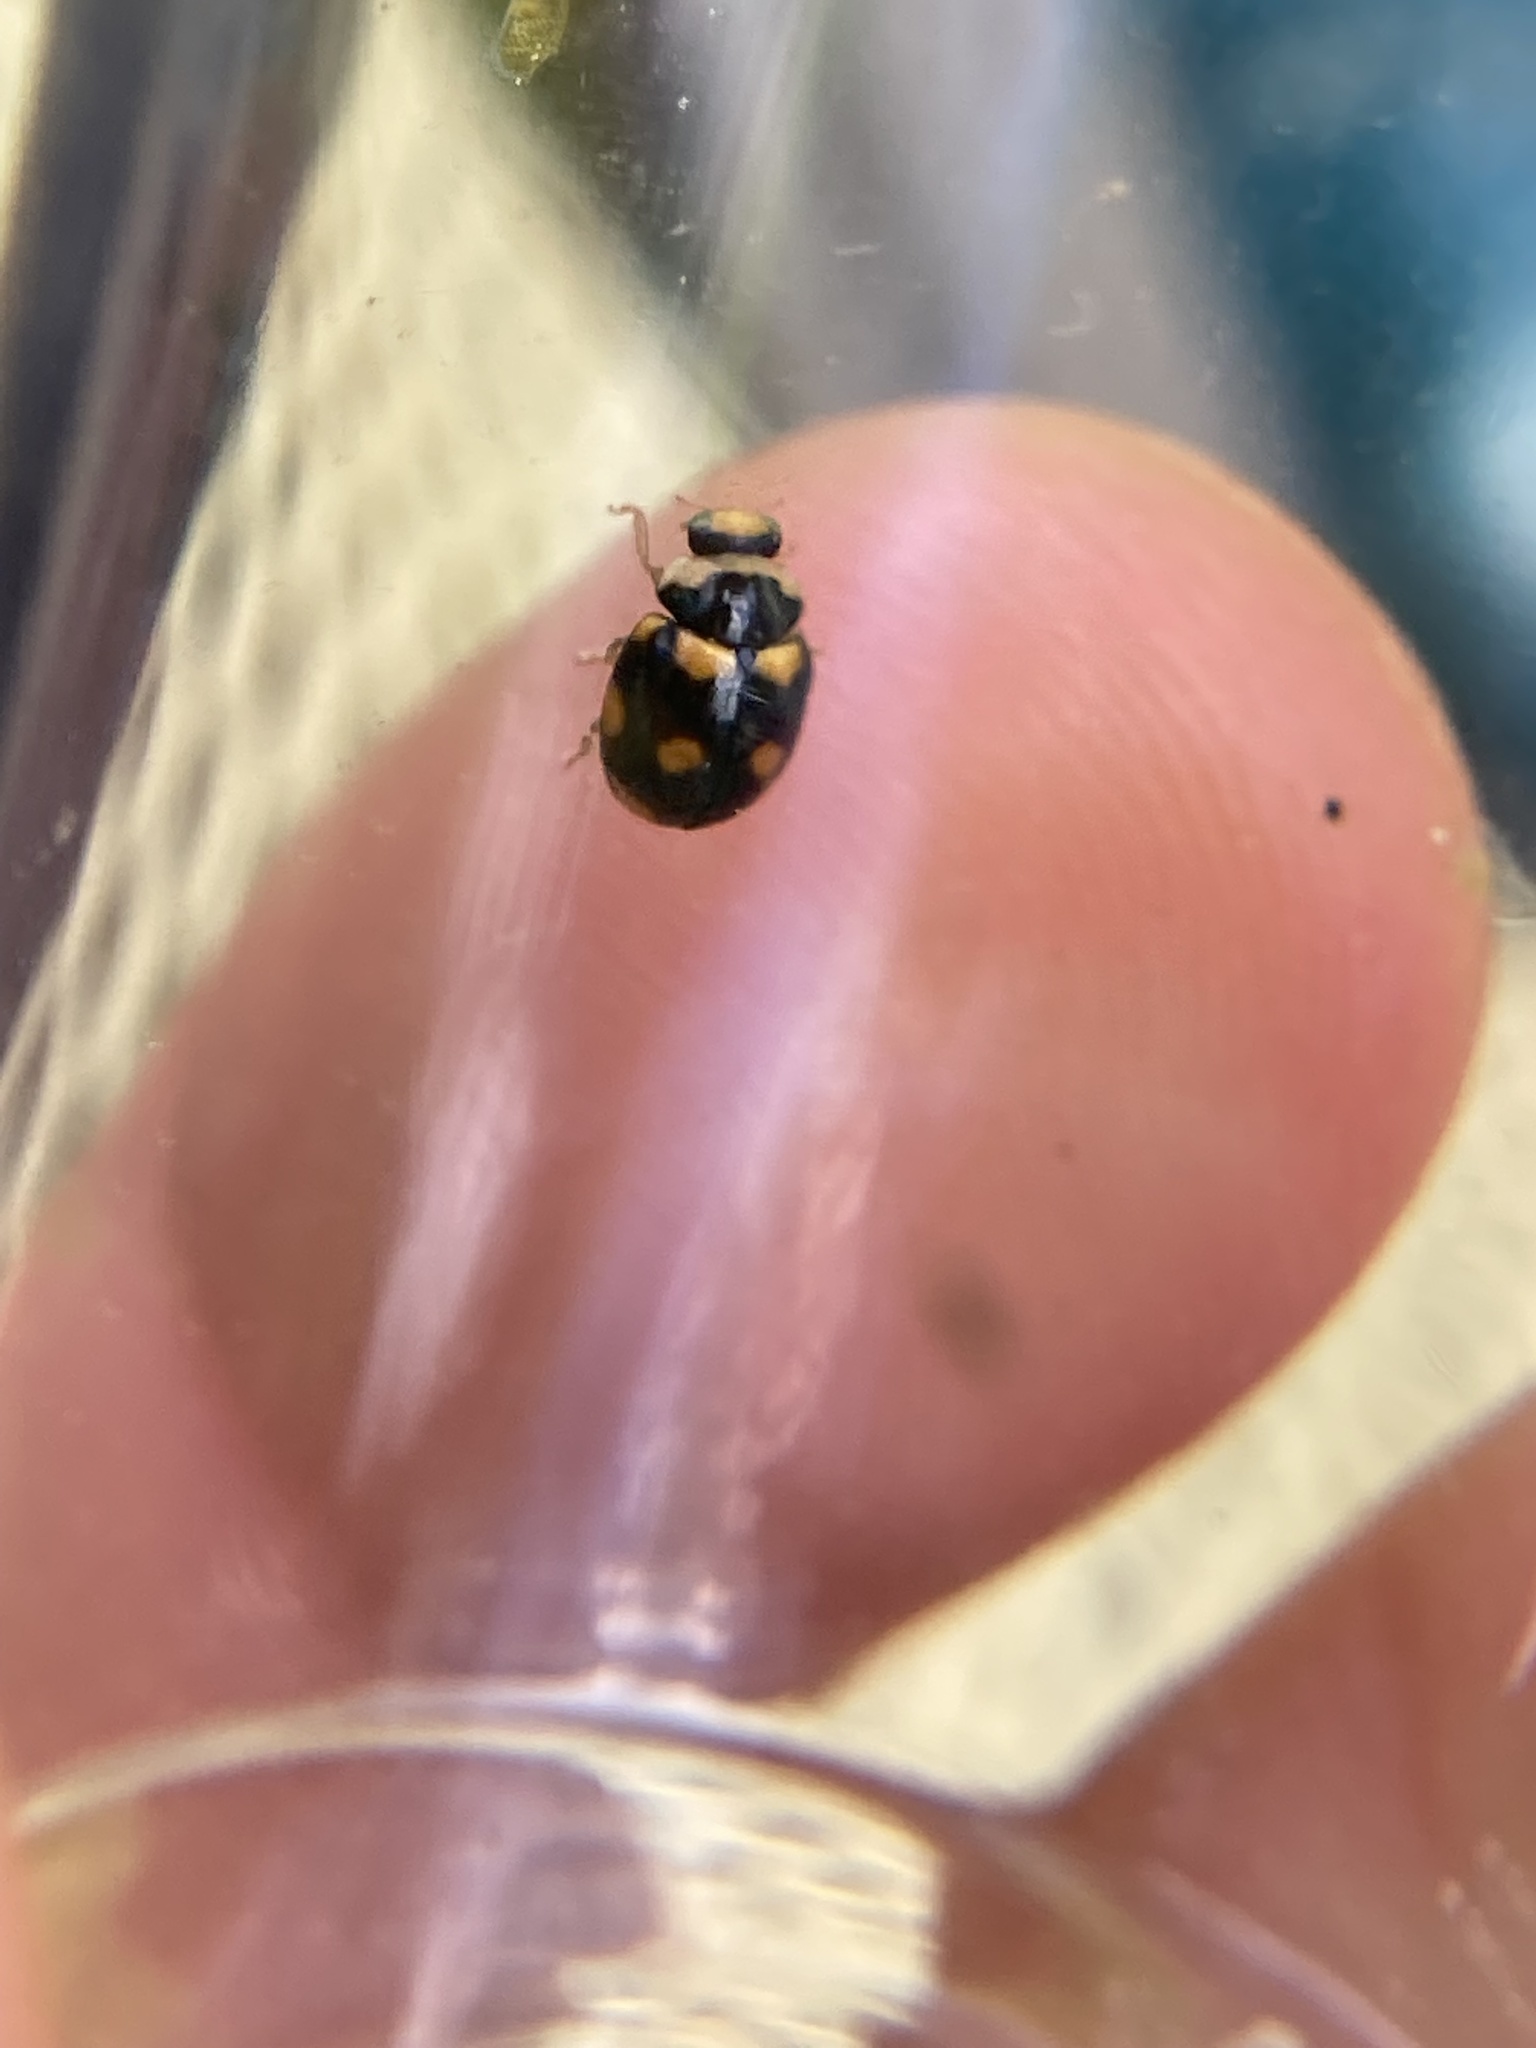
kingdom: Animalia
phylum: Arthropoda
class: Insecta
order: Coleoptera
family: Coccinellidae
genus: Brachiacantha
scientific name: Brachiacantha ursina
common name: Ursine spurleg lady beetle
